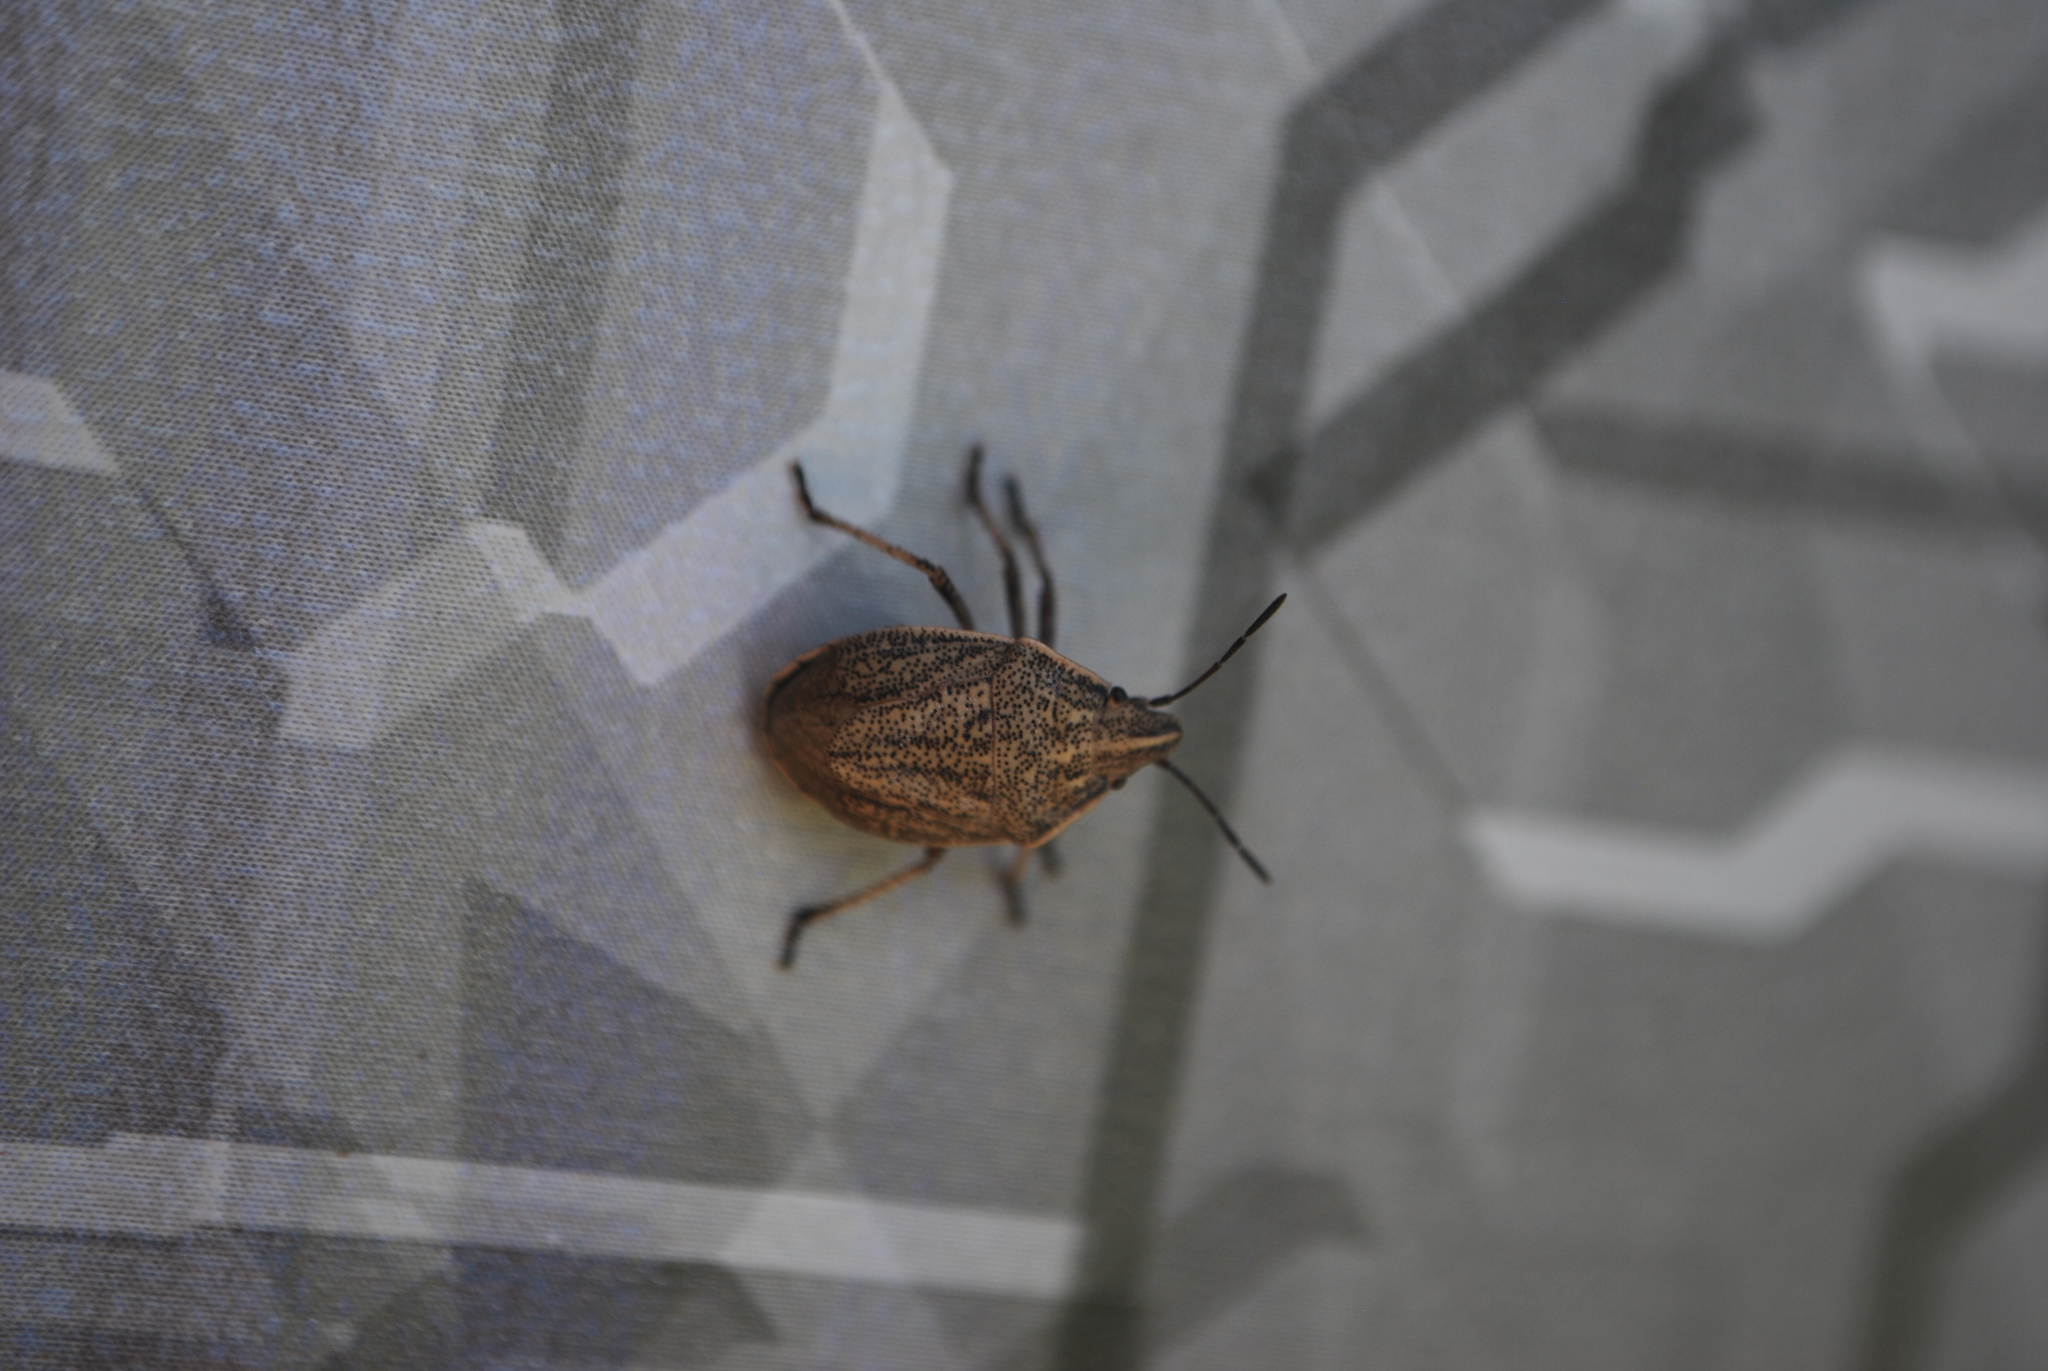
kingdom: Animalia
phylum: Arthropoda
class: Insecta
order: Hemiptera
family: Pentatomidae
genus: Coenus
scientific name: Coenus delius
